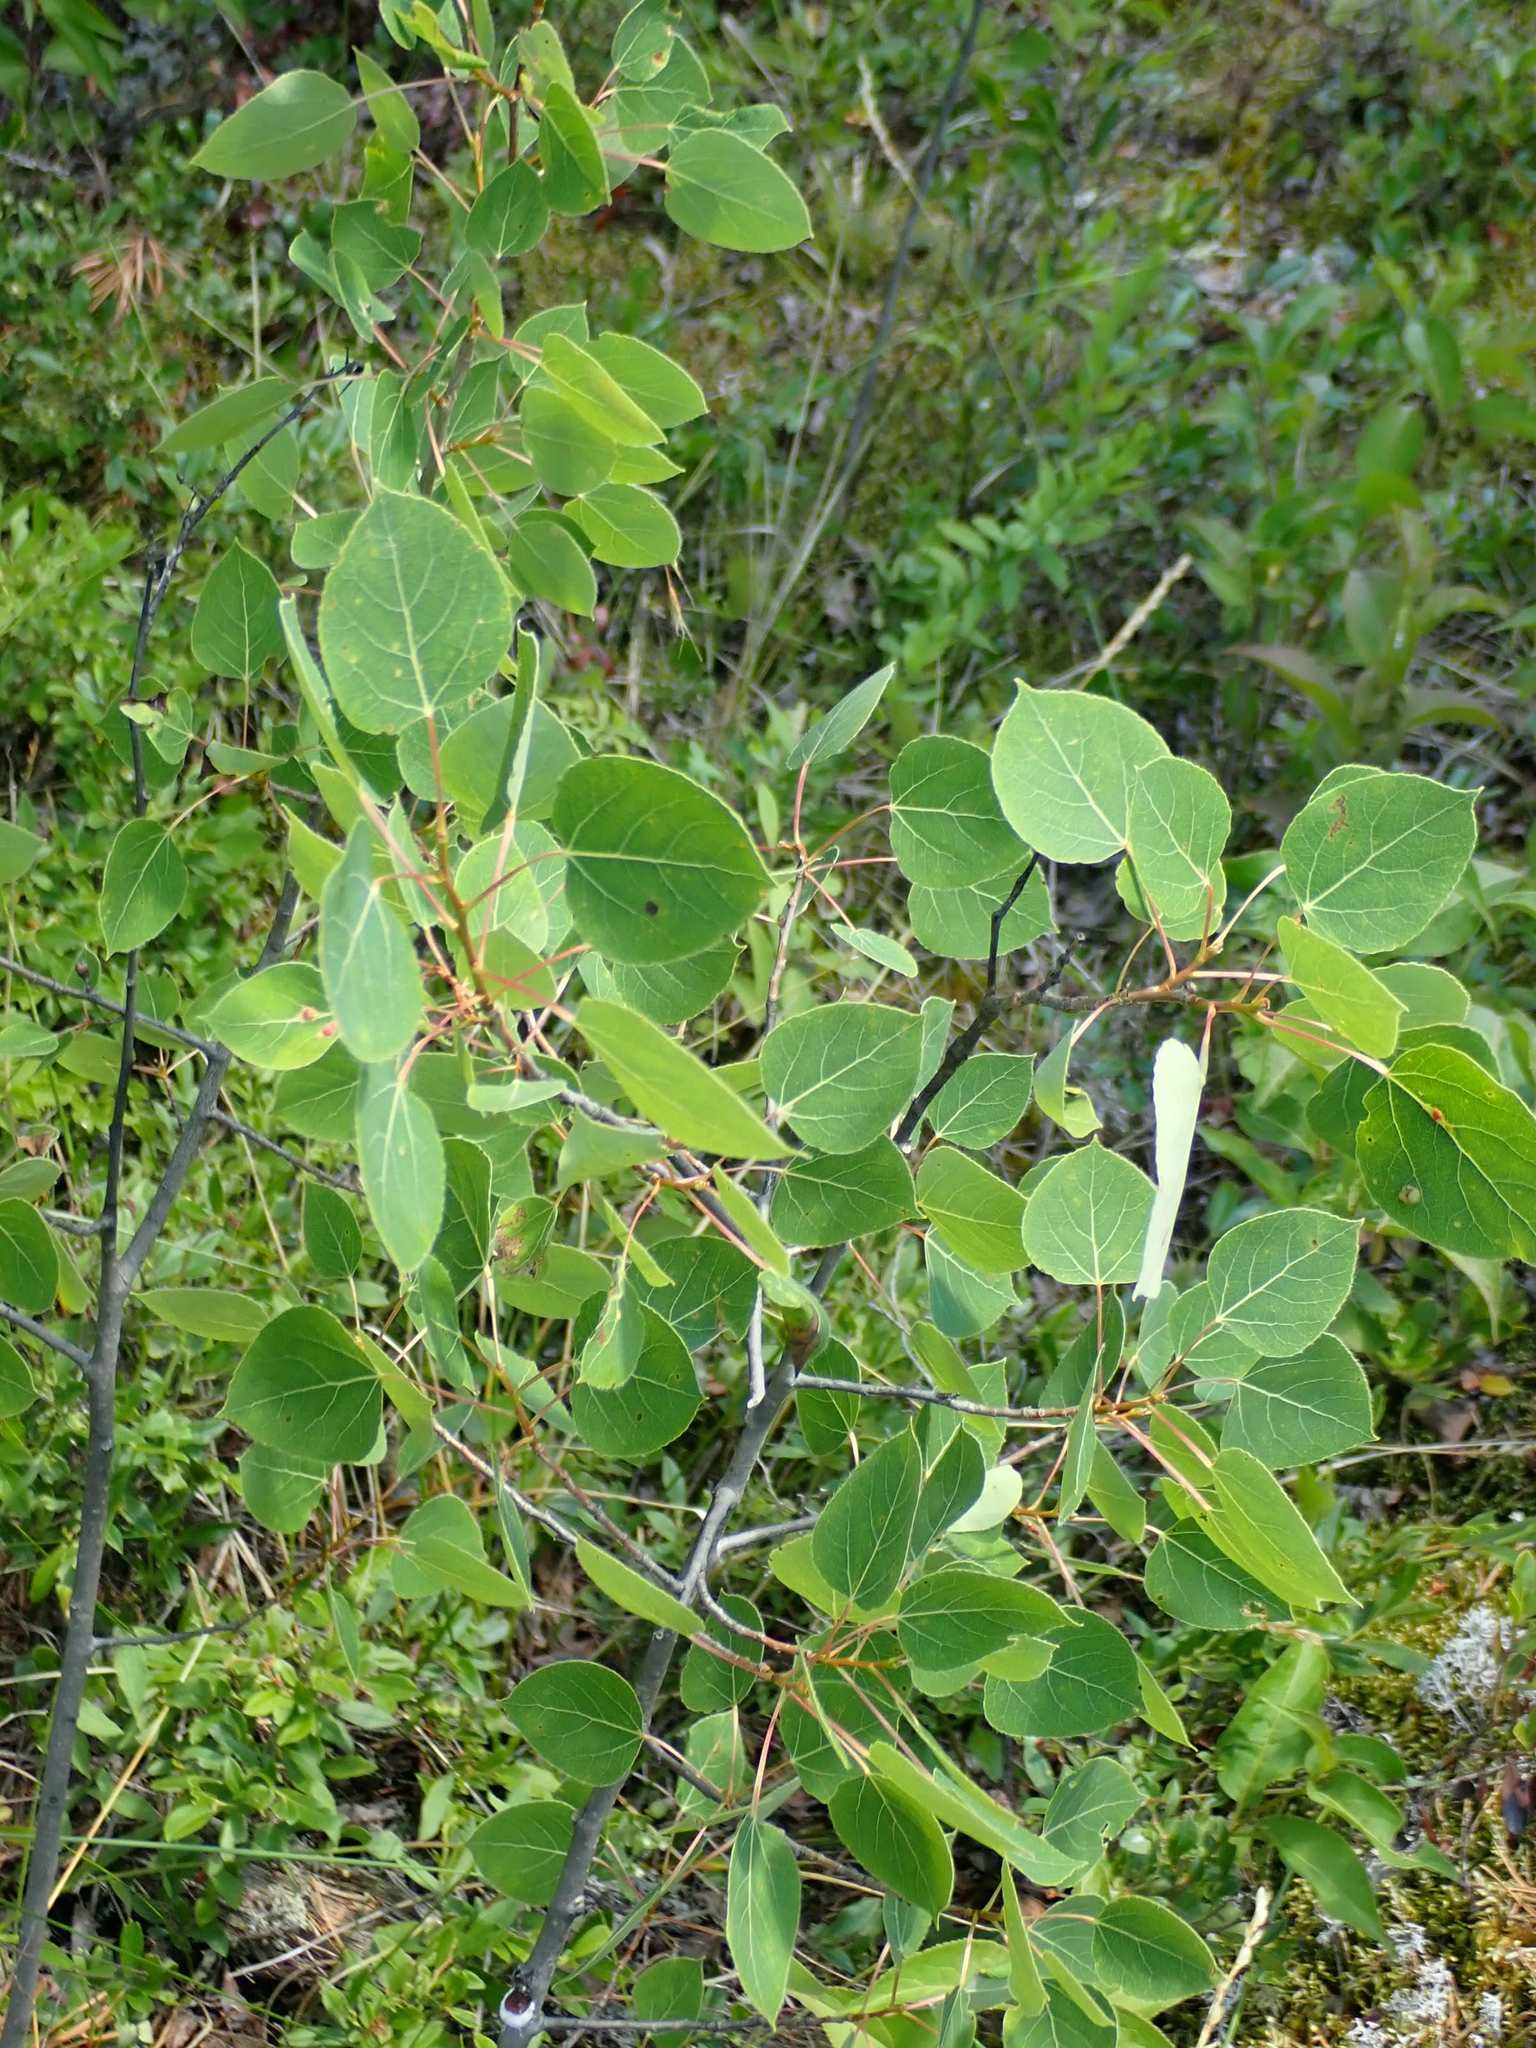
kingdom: Plantae
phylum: Tracheophyta
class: Magnoliopsida
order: Malpighiales
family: Salicaceae
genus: Populus
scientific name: Populus tremuloides
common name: Quaking aspen
